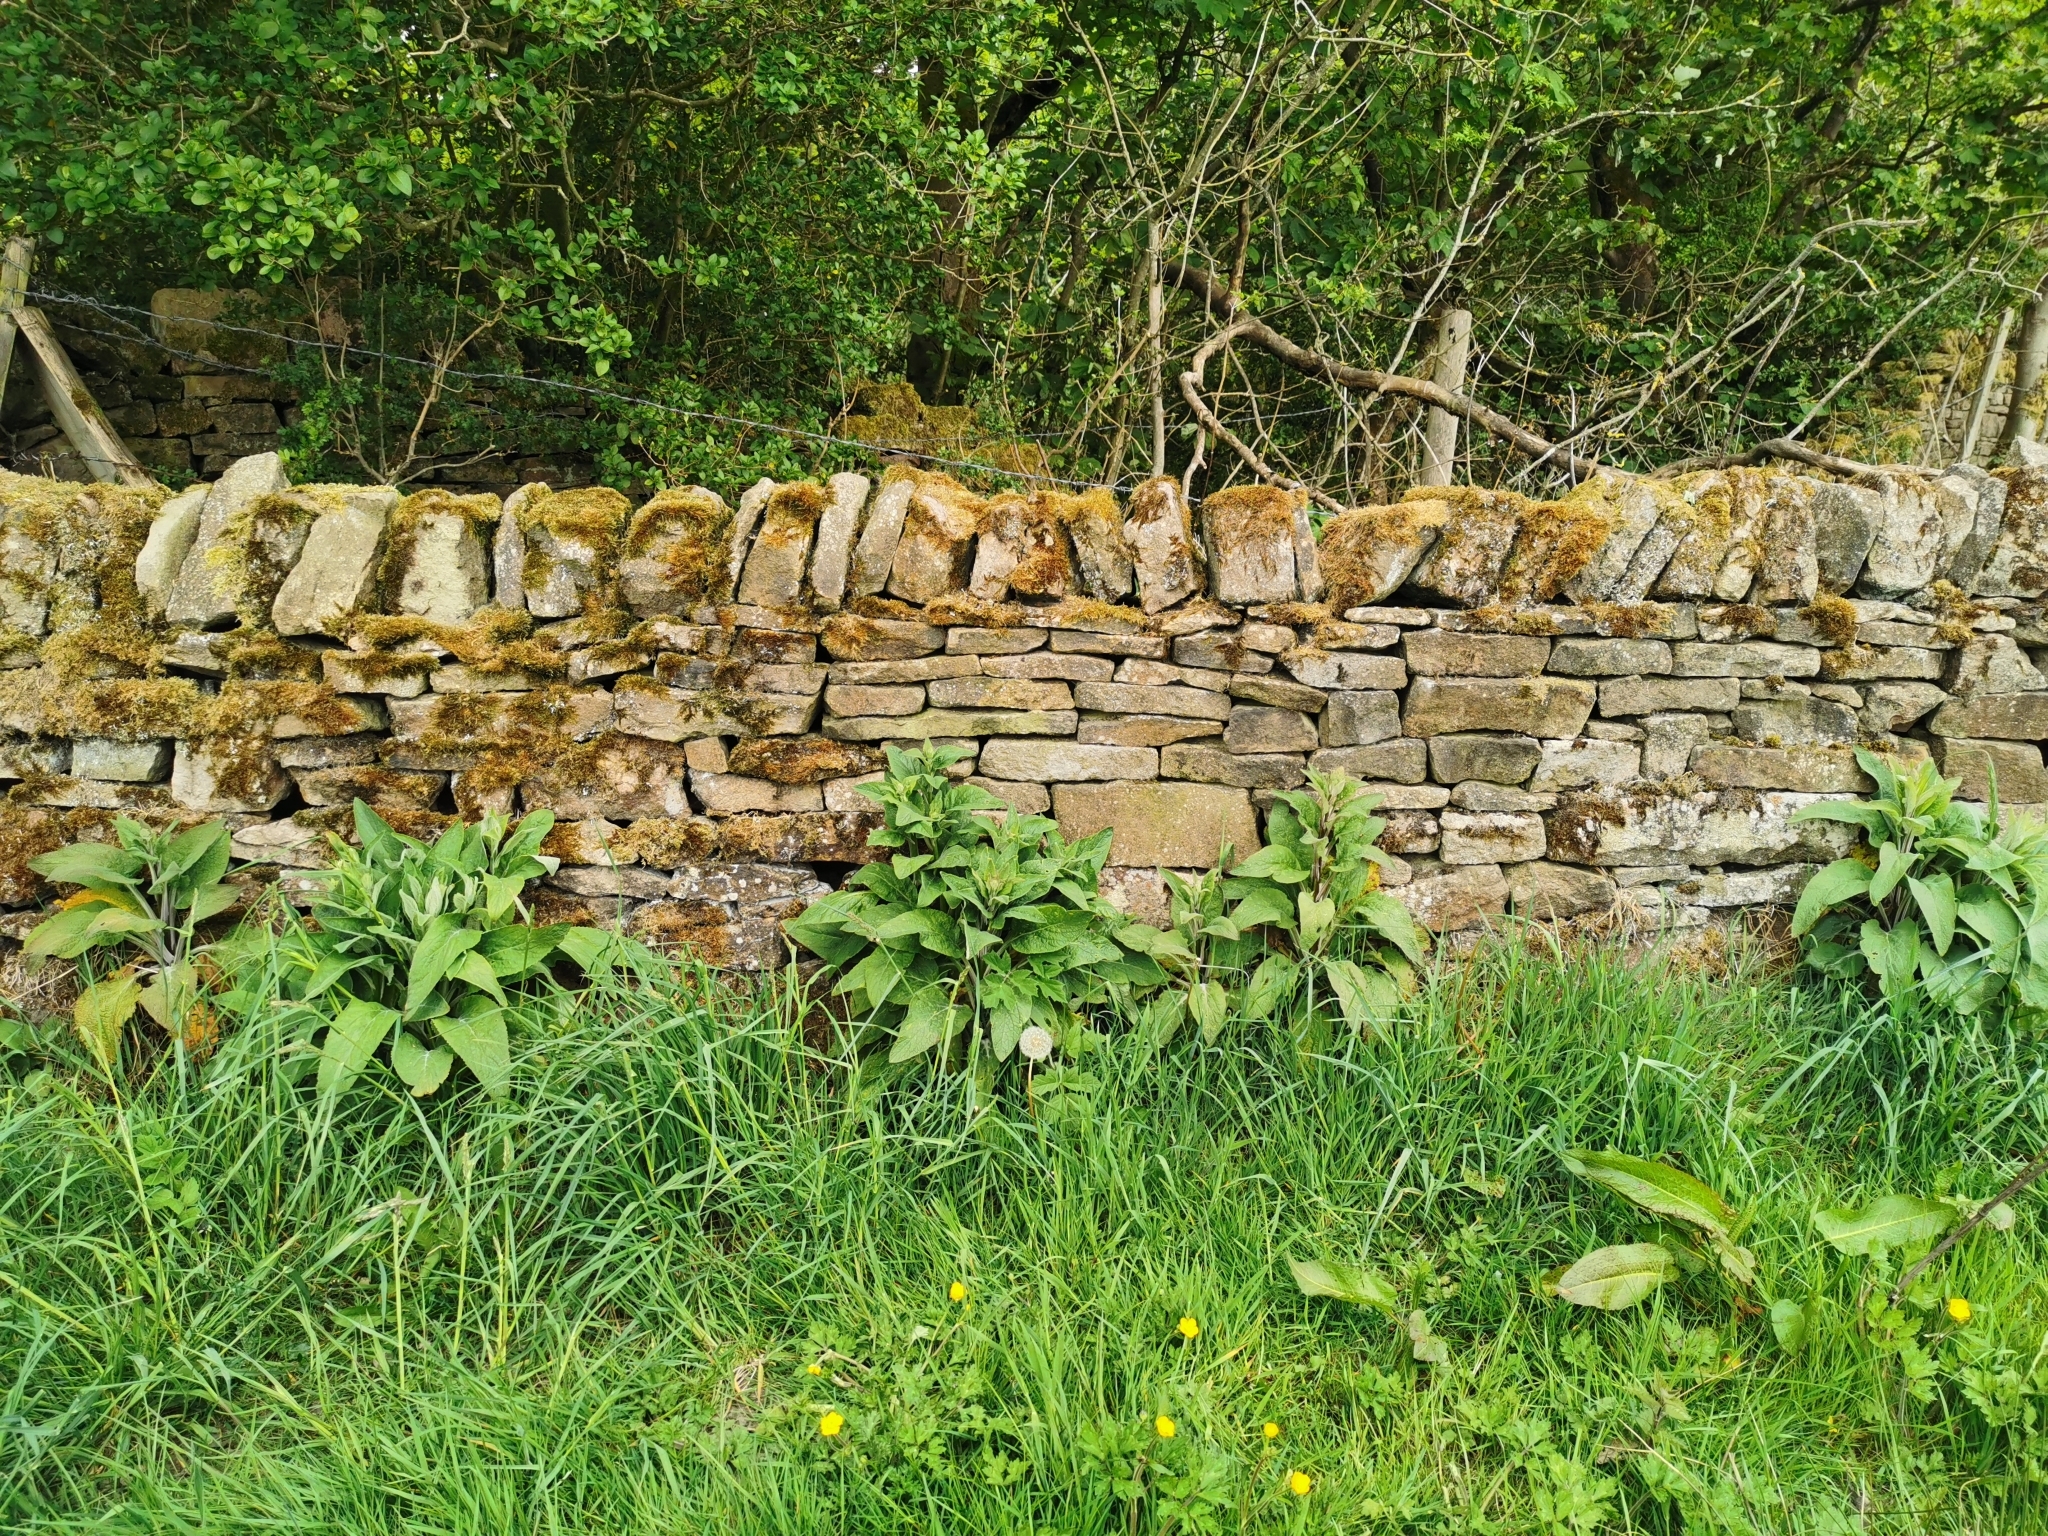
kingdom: Plantae
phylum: Tracheophyta
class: Magnoliopsida
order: Lamiales
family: Plantaginaceae
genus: Digitalis
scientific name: Digitalis purpurea
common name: Foxglove
